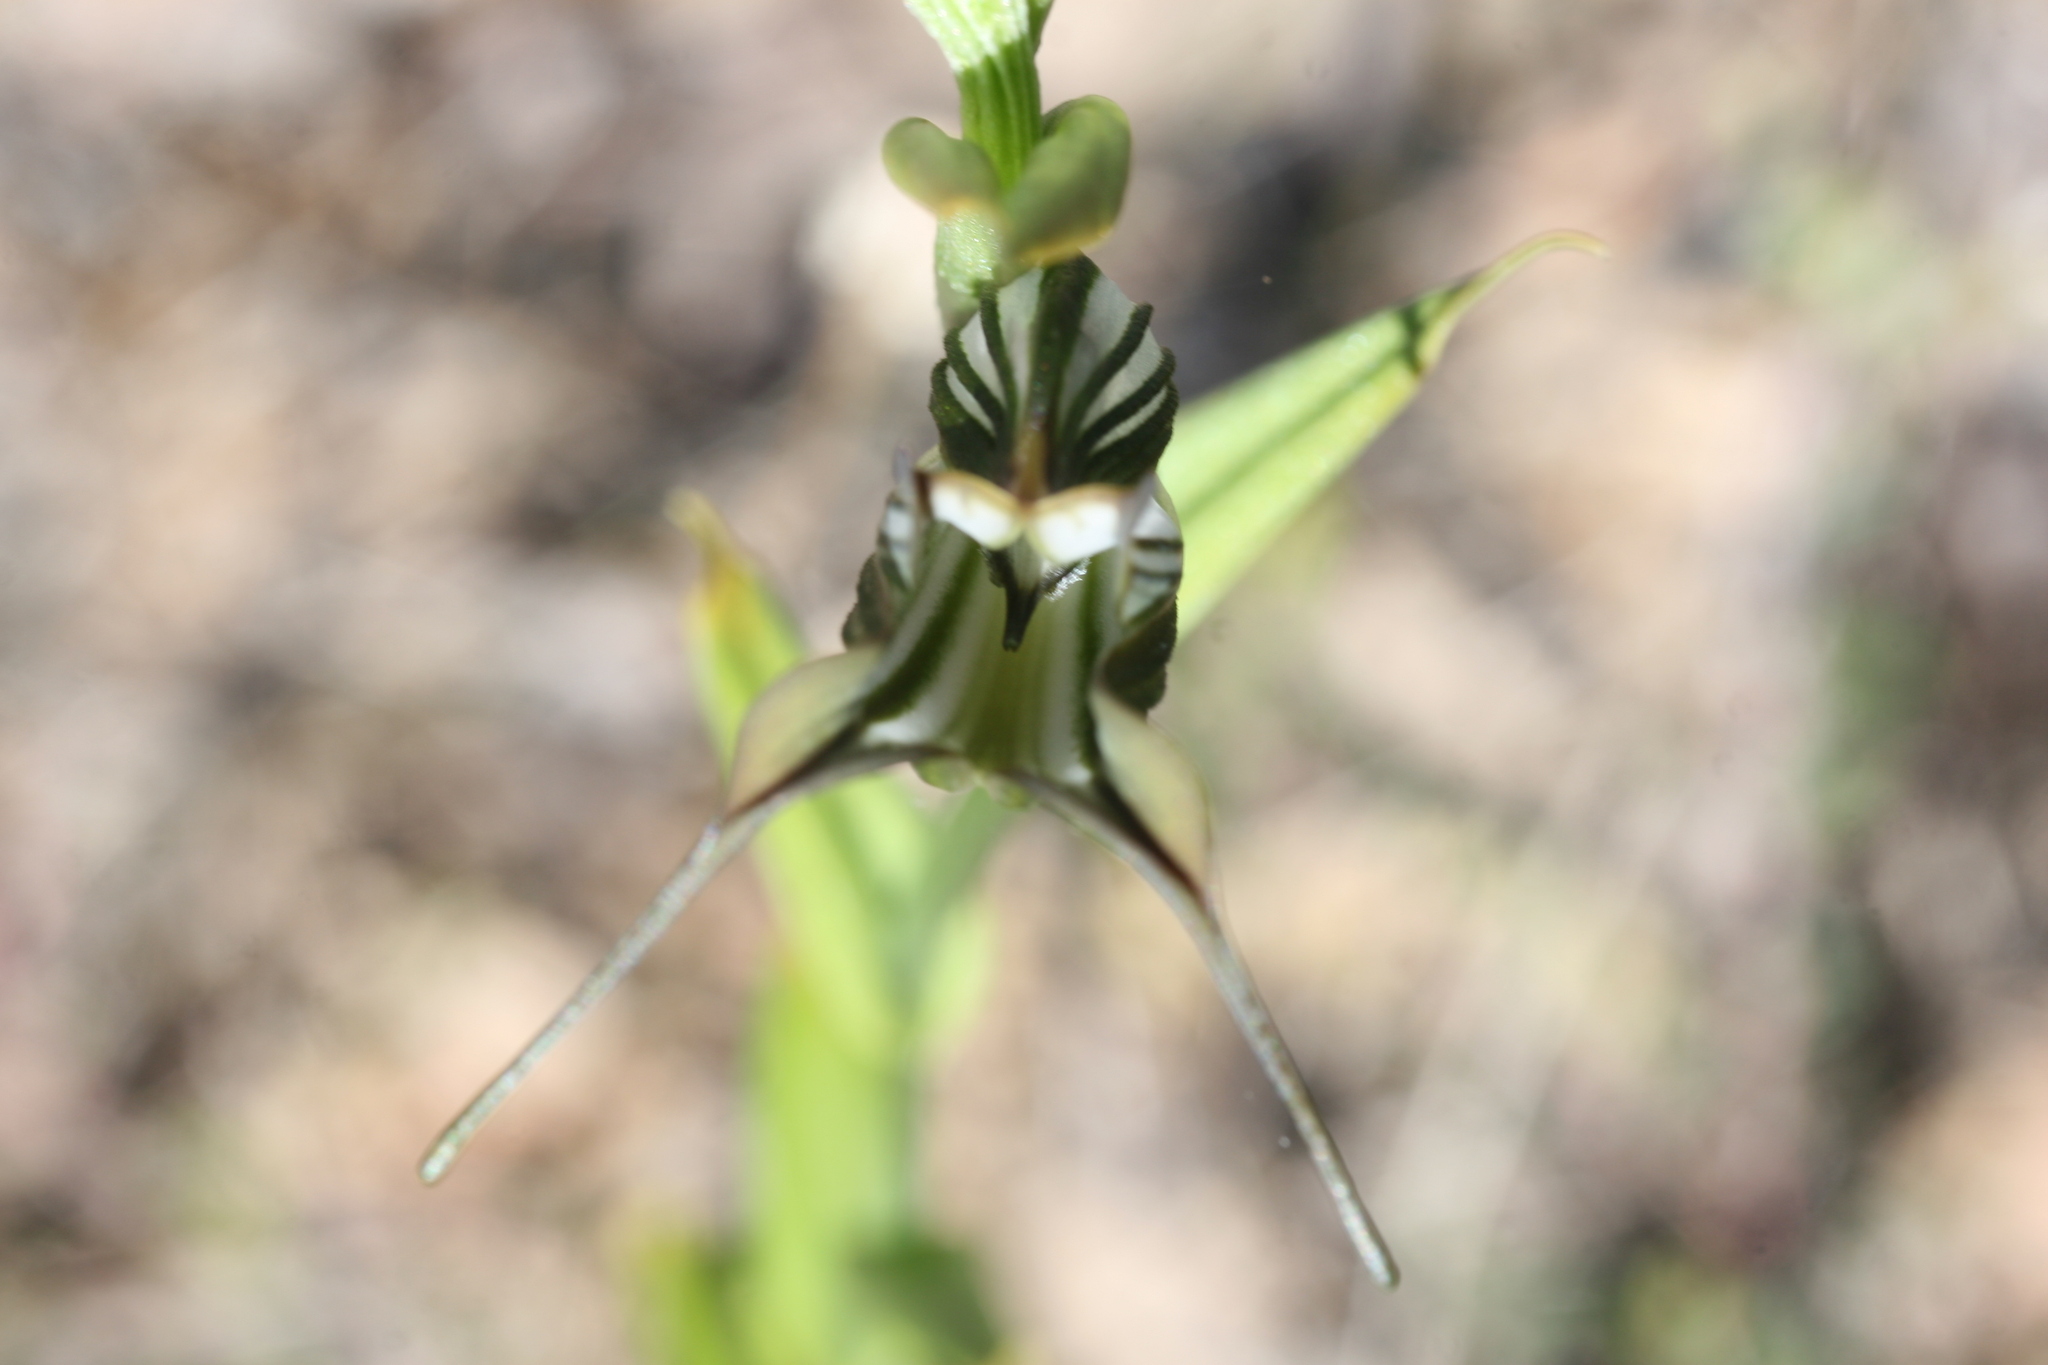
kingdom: Plantae
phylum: Tracheophyta
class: Liliopsida
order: Asparagales
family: Orchidaceae
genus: Pterostylis
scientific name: Pterostylis recurva
